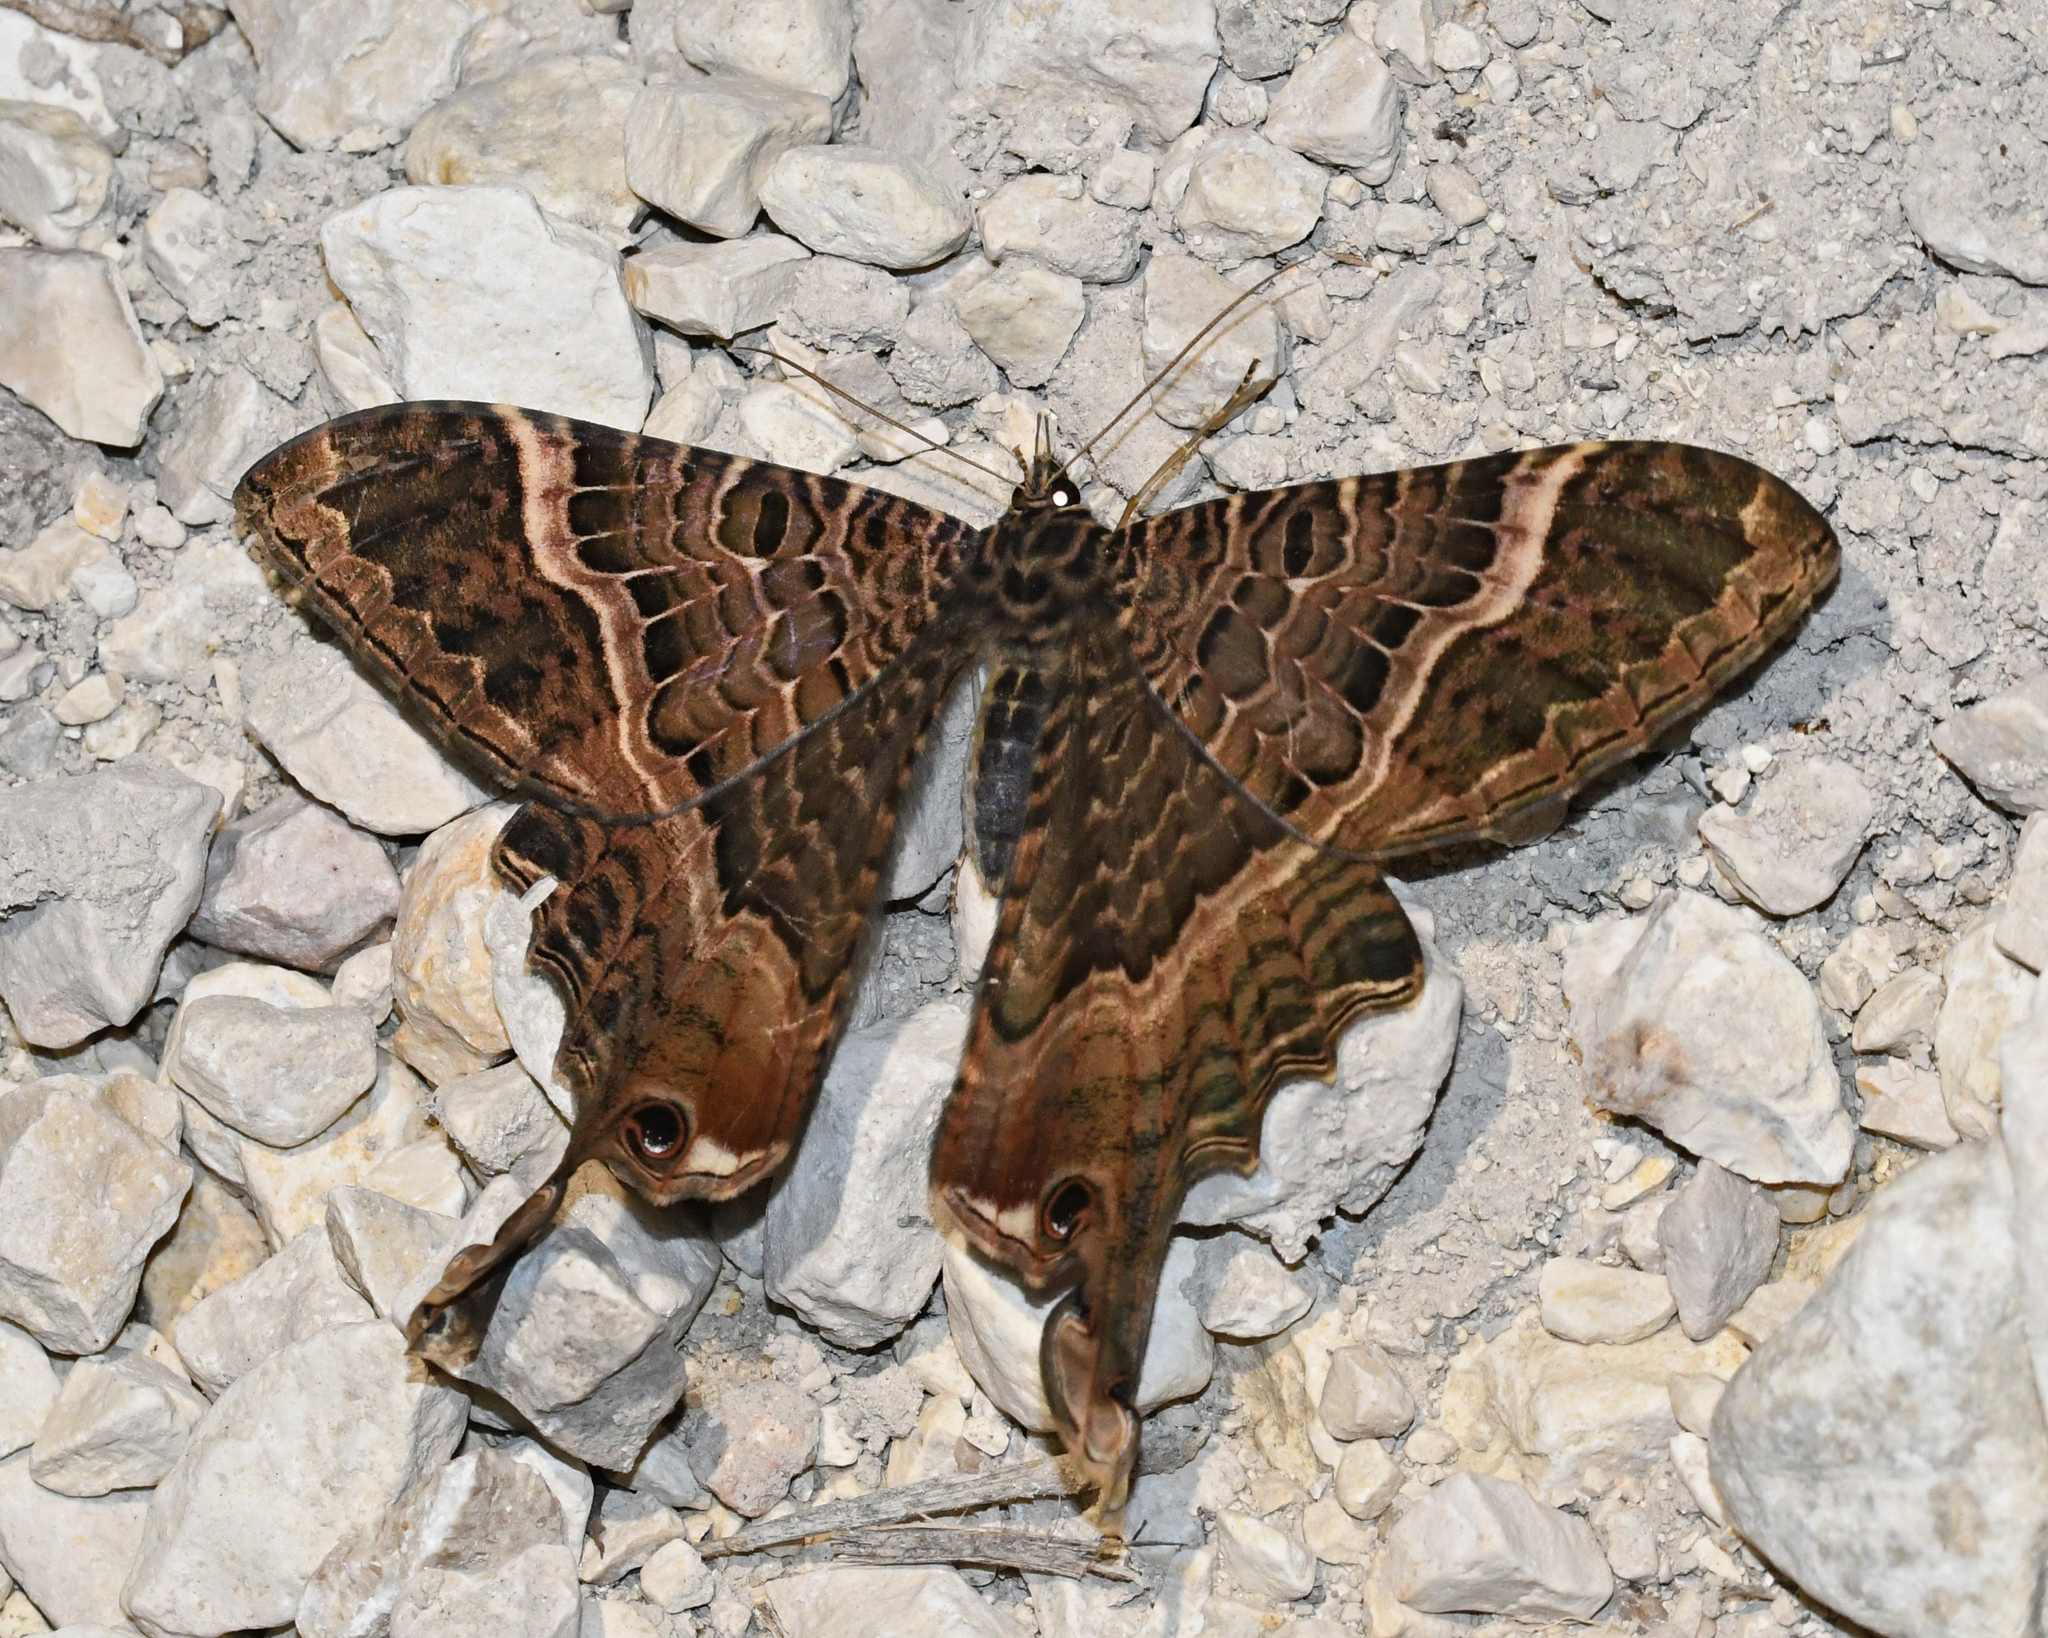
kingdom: Animalia
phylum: Arthropoda
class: Insecta
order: Lepidoptera
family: Sematuridae
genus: Nothus
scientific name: Nothus
